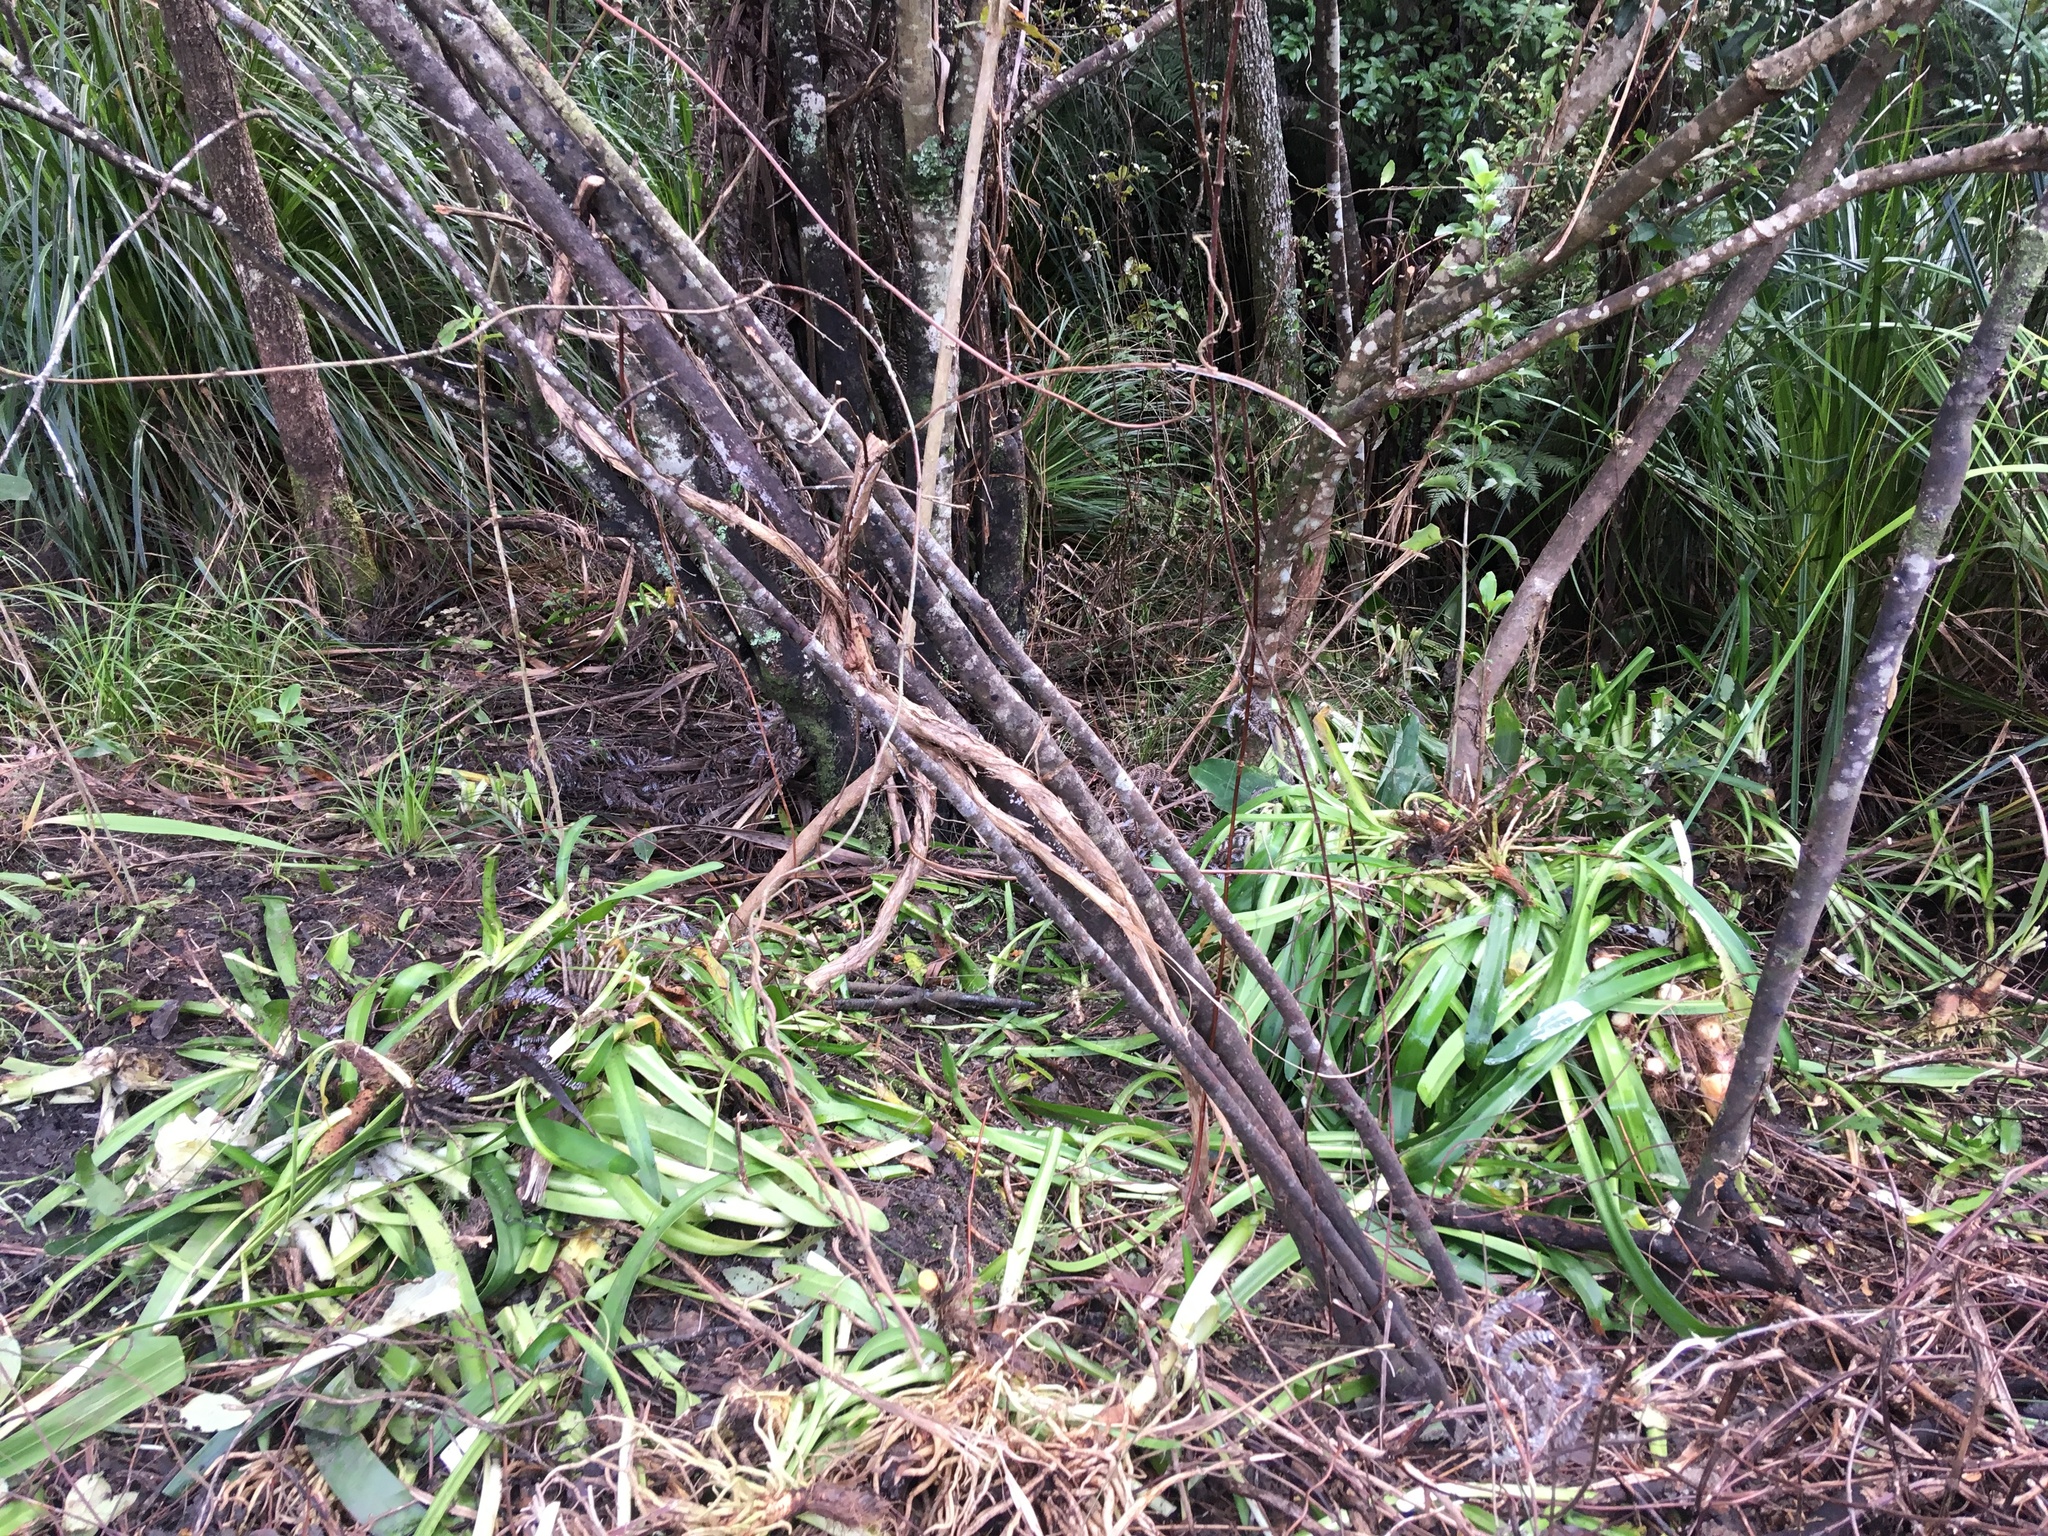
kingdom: Plantae
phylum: Tracheophyta
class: Liliopsida
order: Asparagales
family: Amaryllidaceae
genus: Agapanthus
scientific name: Agapanthus praecox
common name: African-lily
